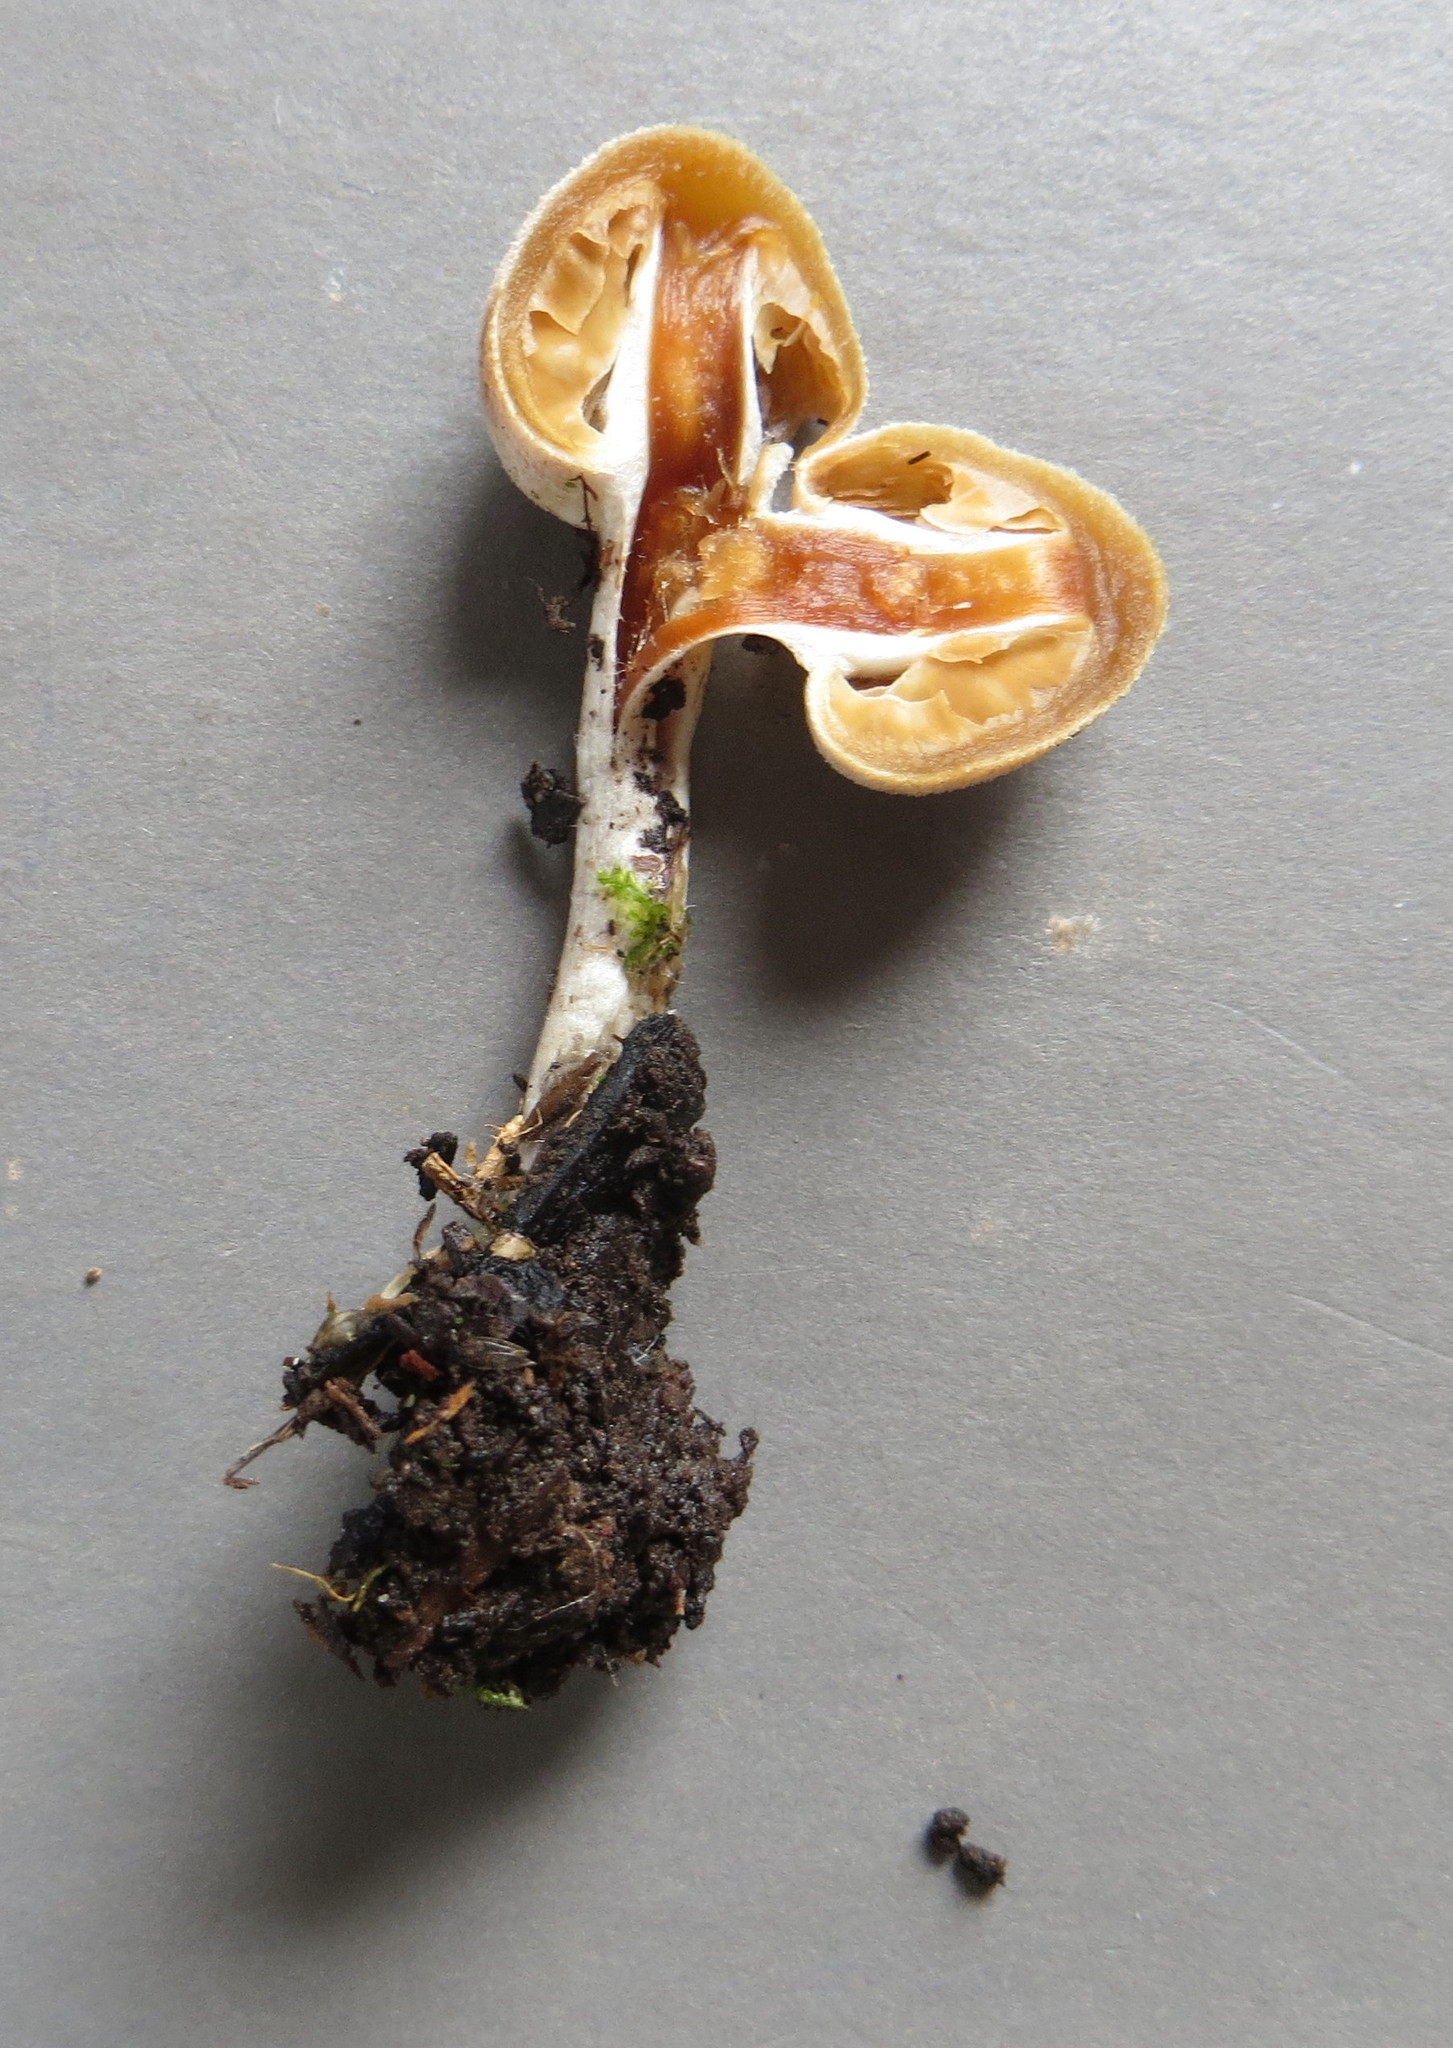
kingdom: Fungi
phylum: Basidiomycota
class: Agaricomycetes
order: Agaricales
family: Bolbitiaceae
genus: Tympanella
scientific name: Tympanella galanthina
